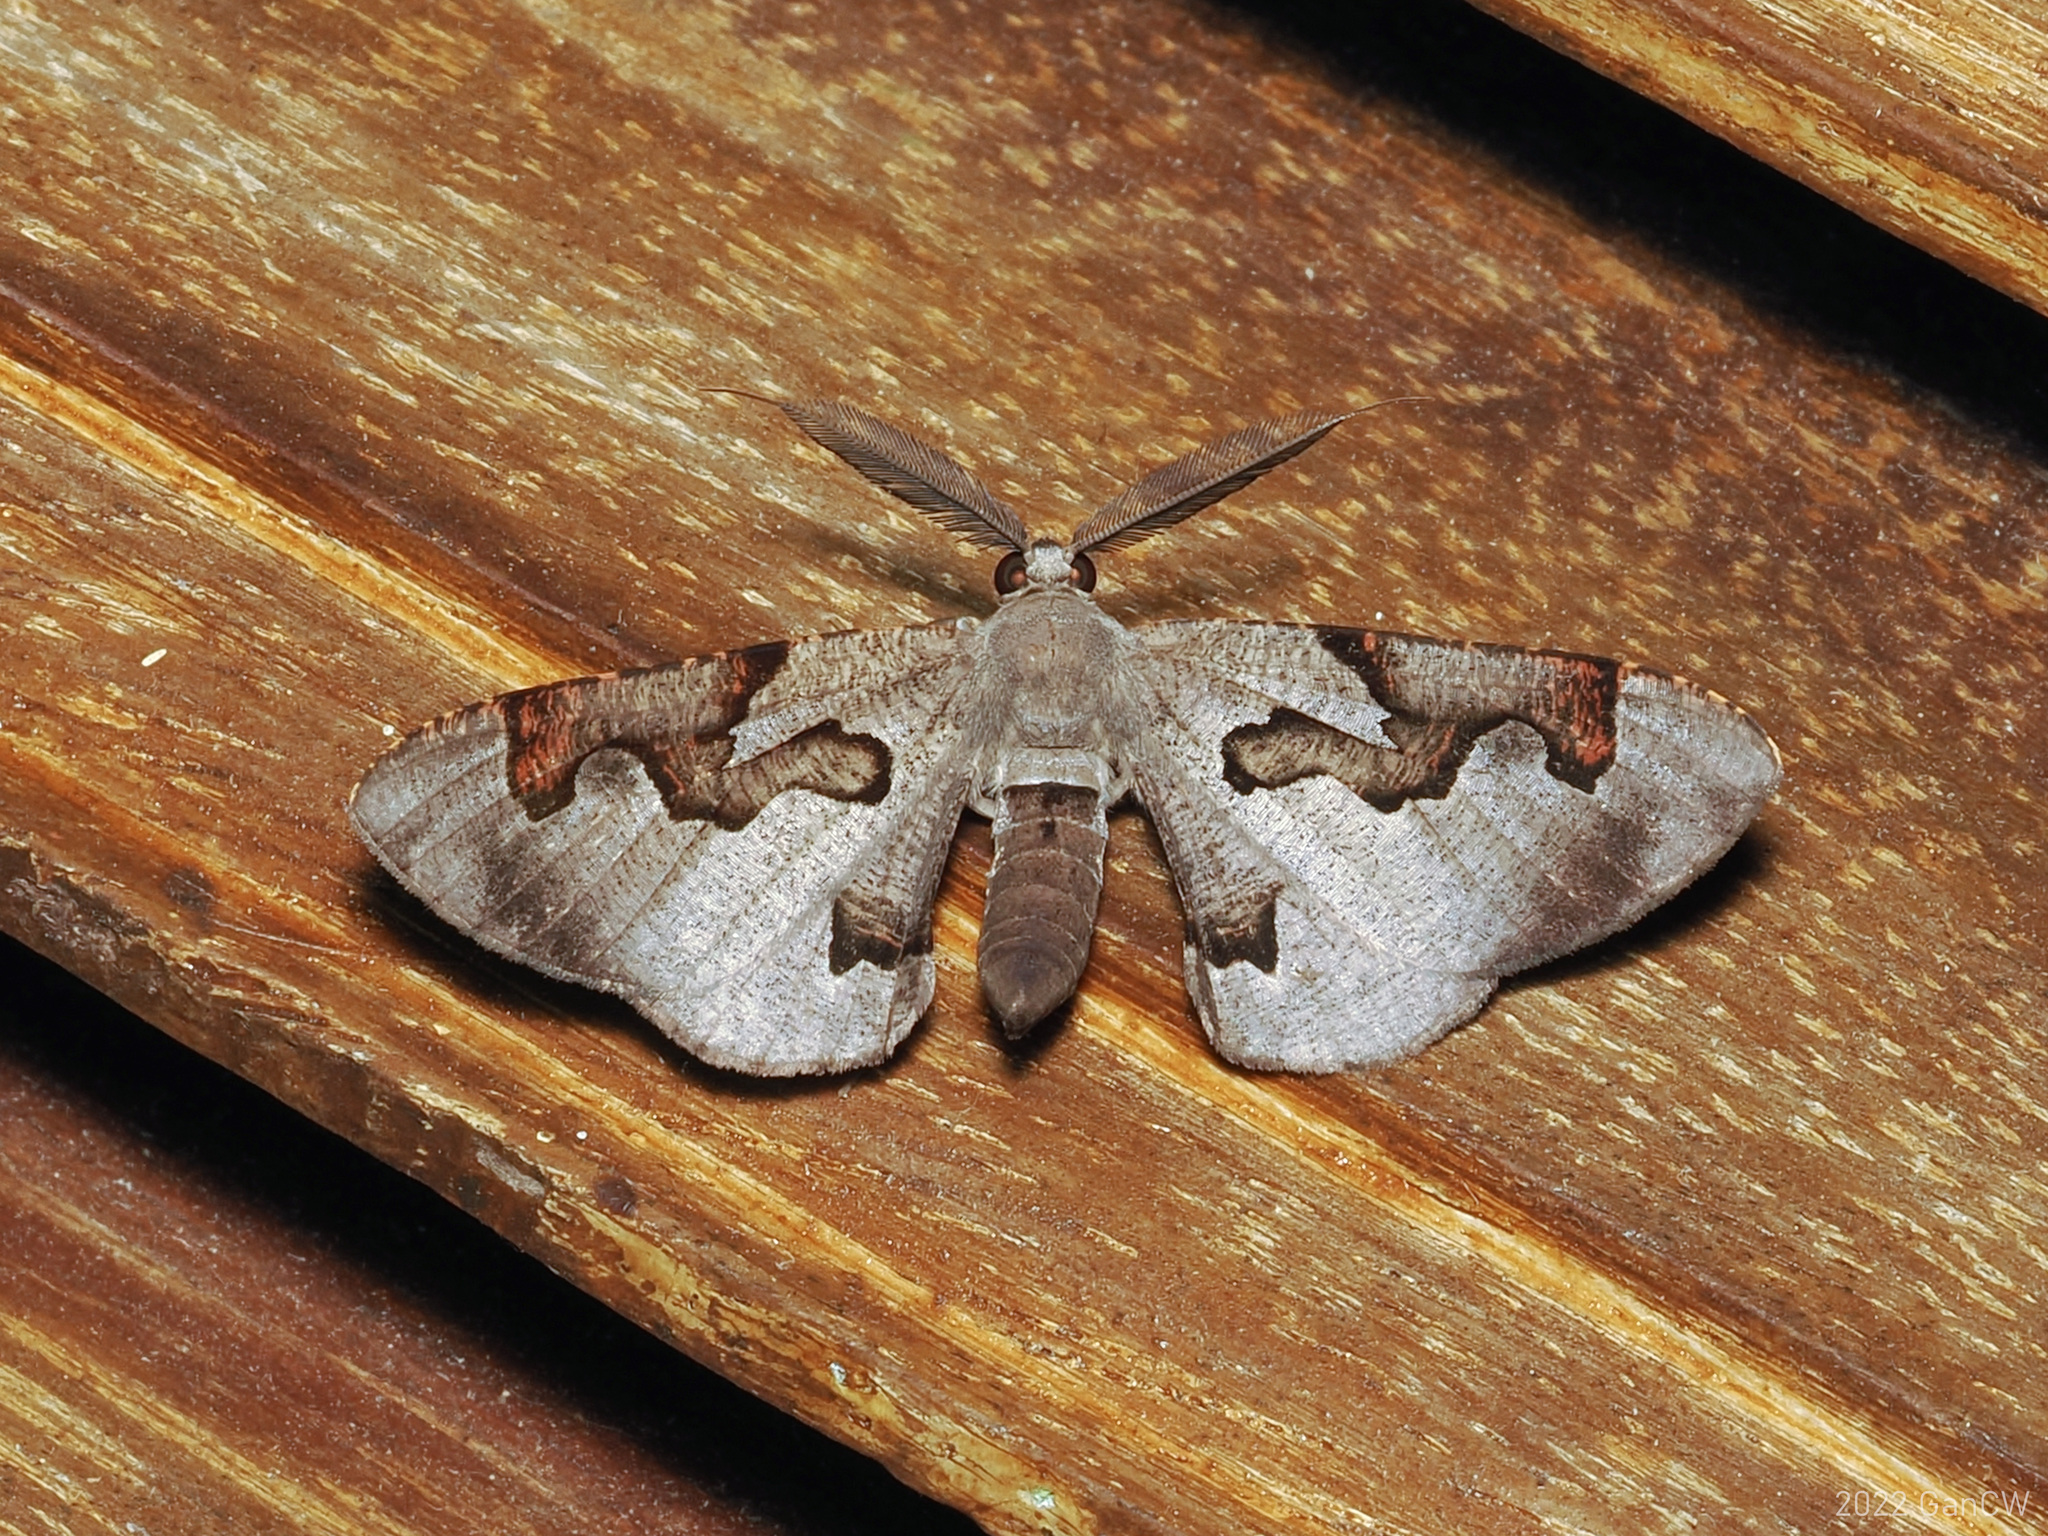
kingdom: Animalia
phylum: Arthropoda
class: Insecta
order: Lepidoptera
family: Geometridae
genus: Hypochrosis
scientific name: Hypochrosis pyrrhophaeata
